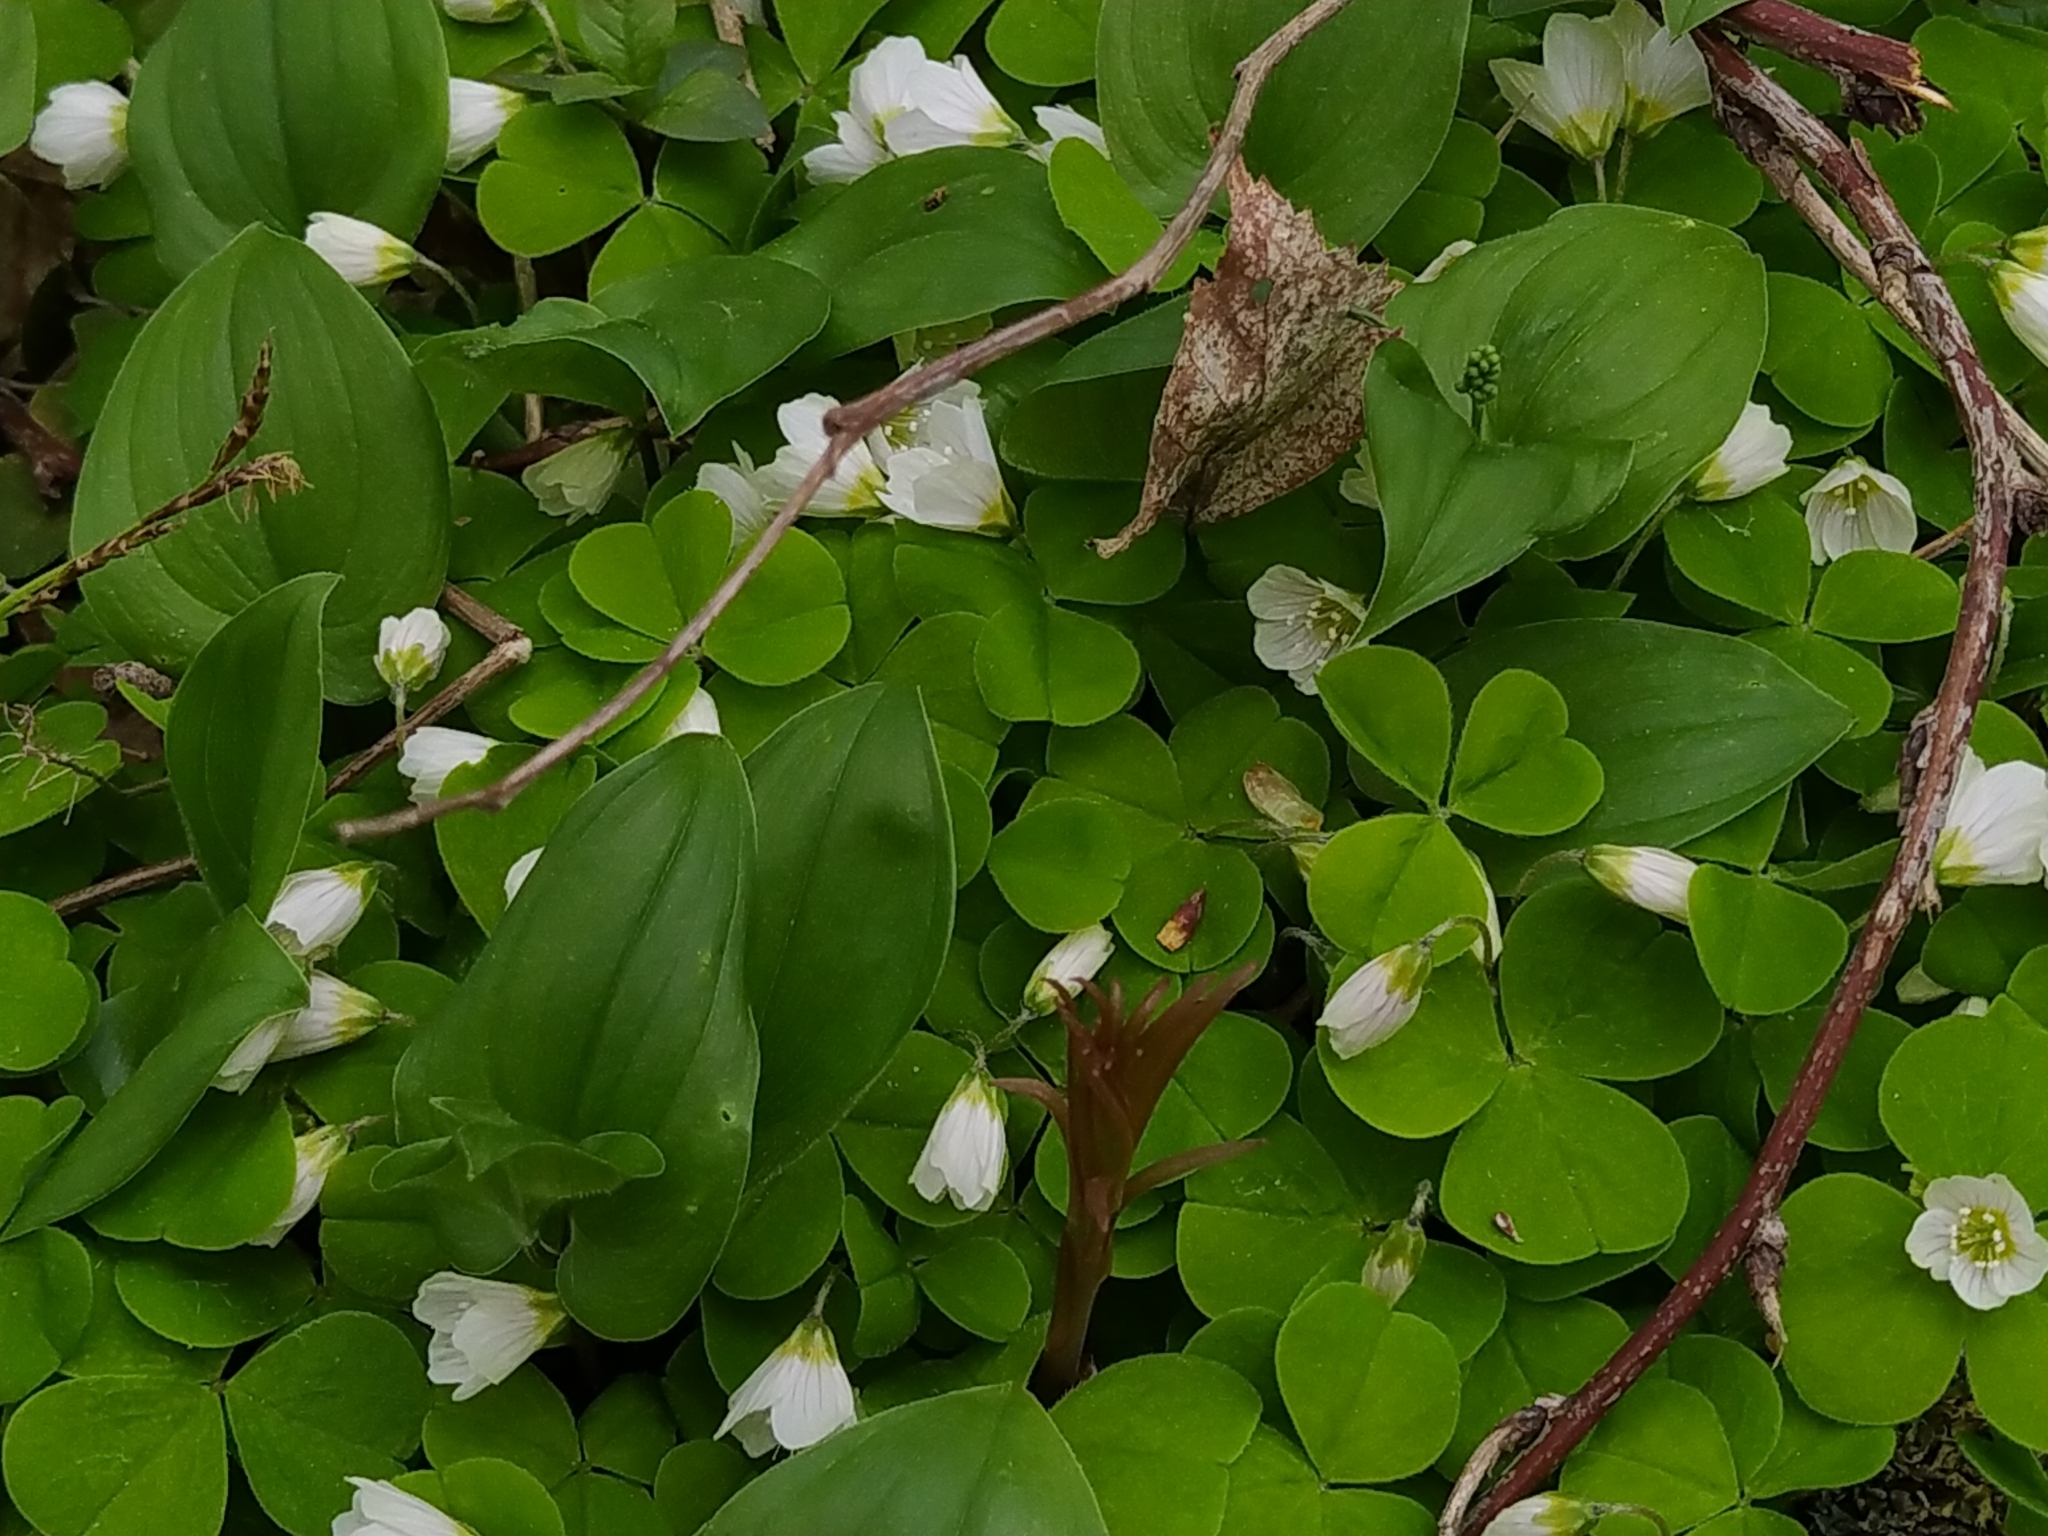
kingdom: Plantae
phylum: Tracheophyta
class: Liliopsida
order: Asparagales
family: Asparagaceae
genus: Maianthemum
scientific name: Maianthemum bifolium
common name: May lily
